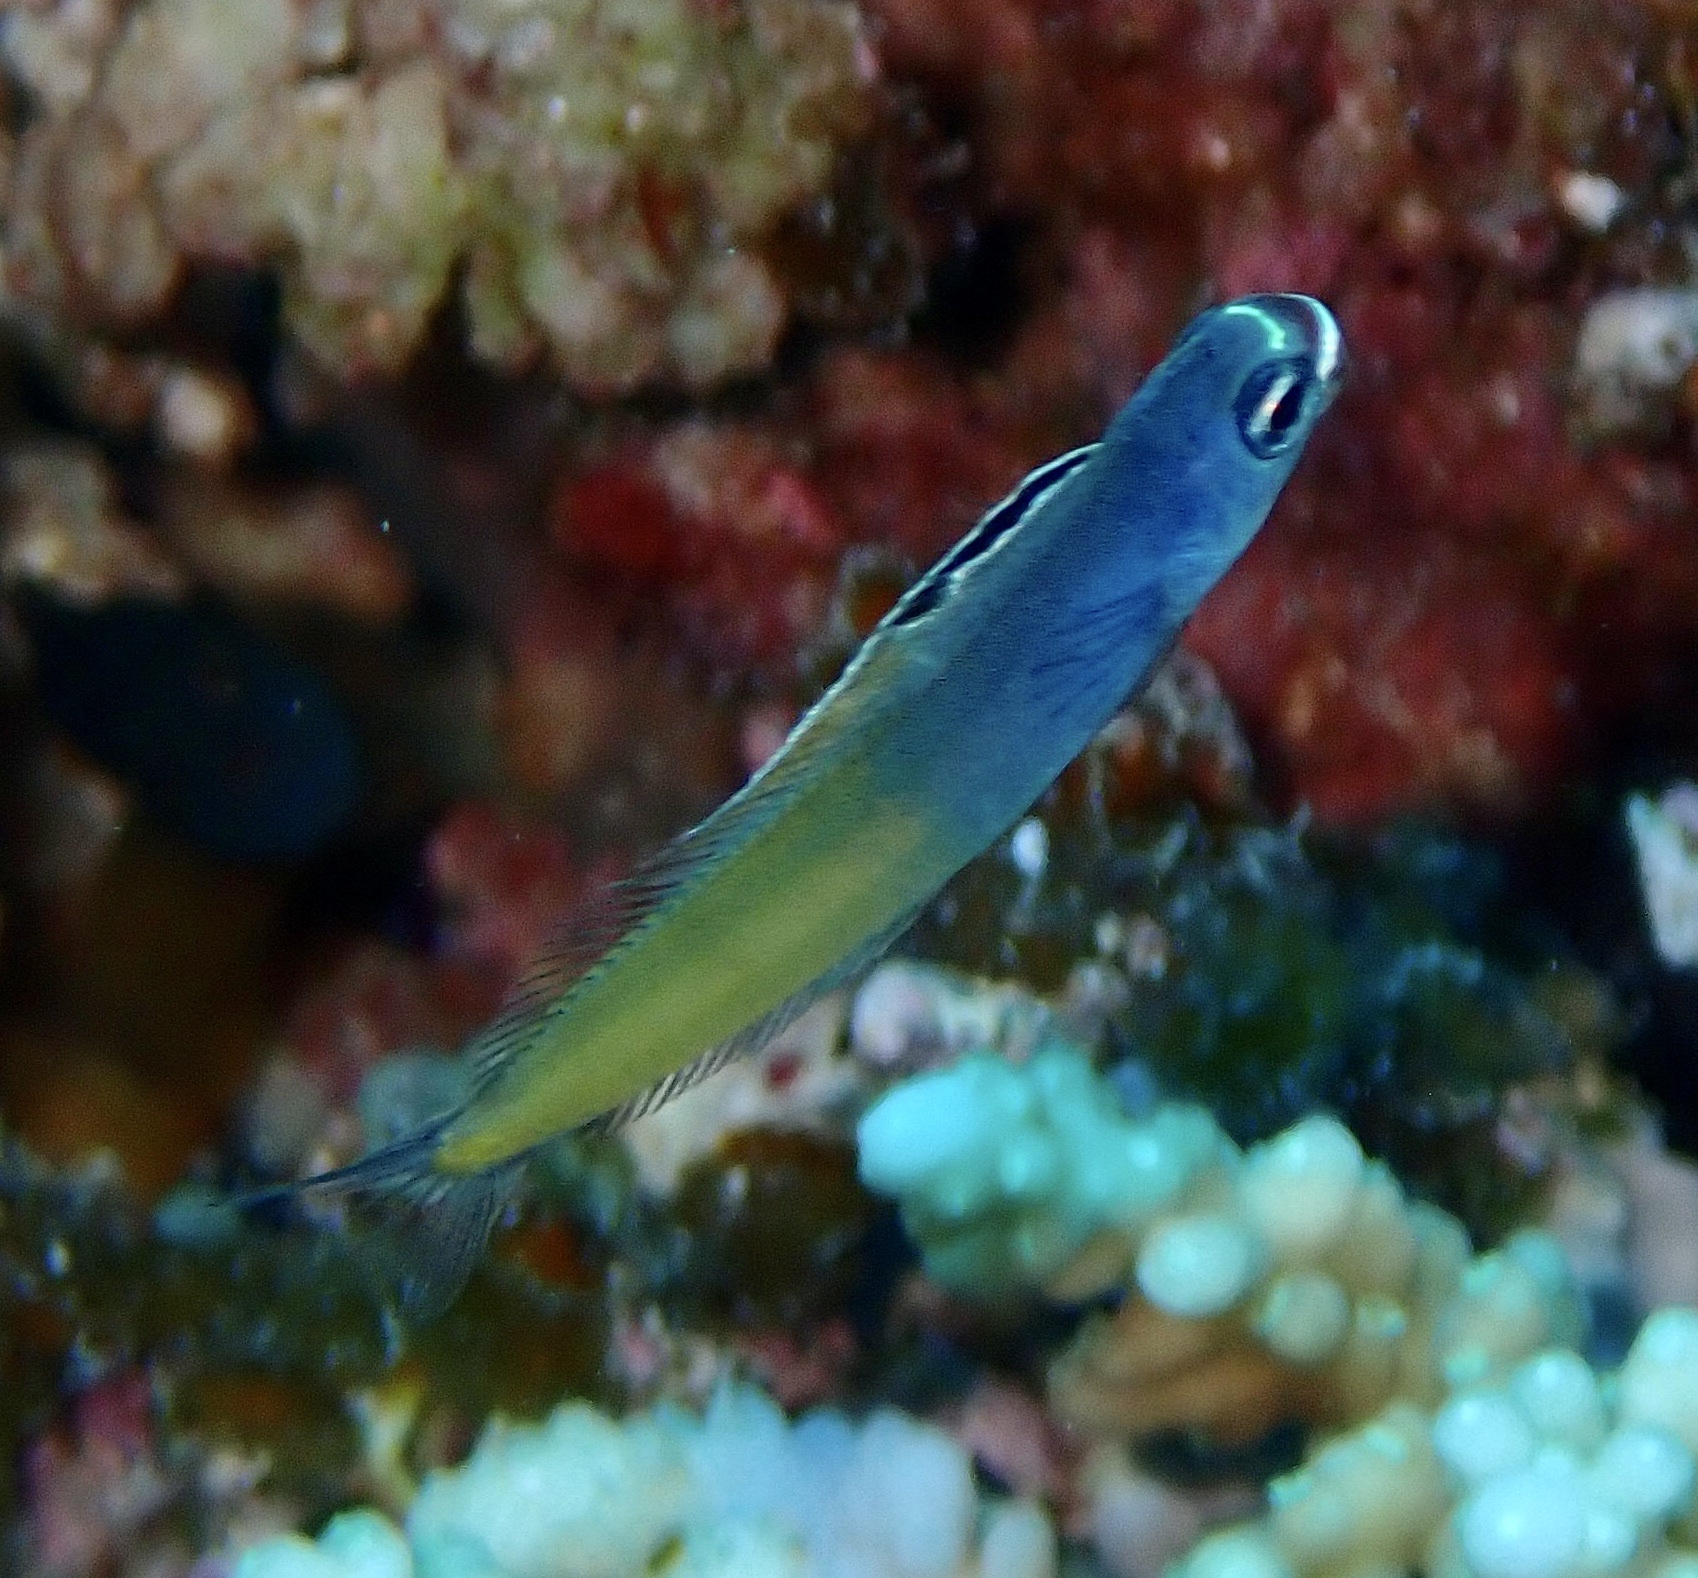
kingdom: Animalia
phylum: Chordata
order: Perciformes
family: Blenniidae
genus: Plagiotremus
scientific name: Plagiotremus townsendi
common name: Townsend's fangblenny
